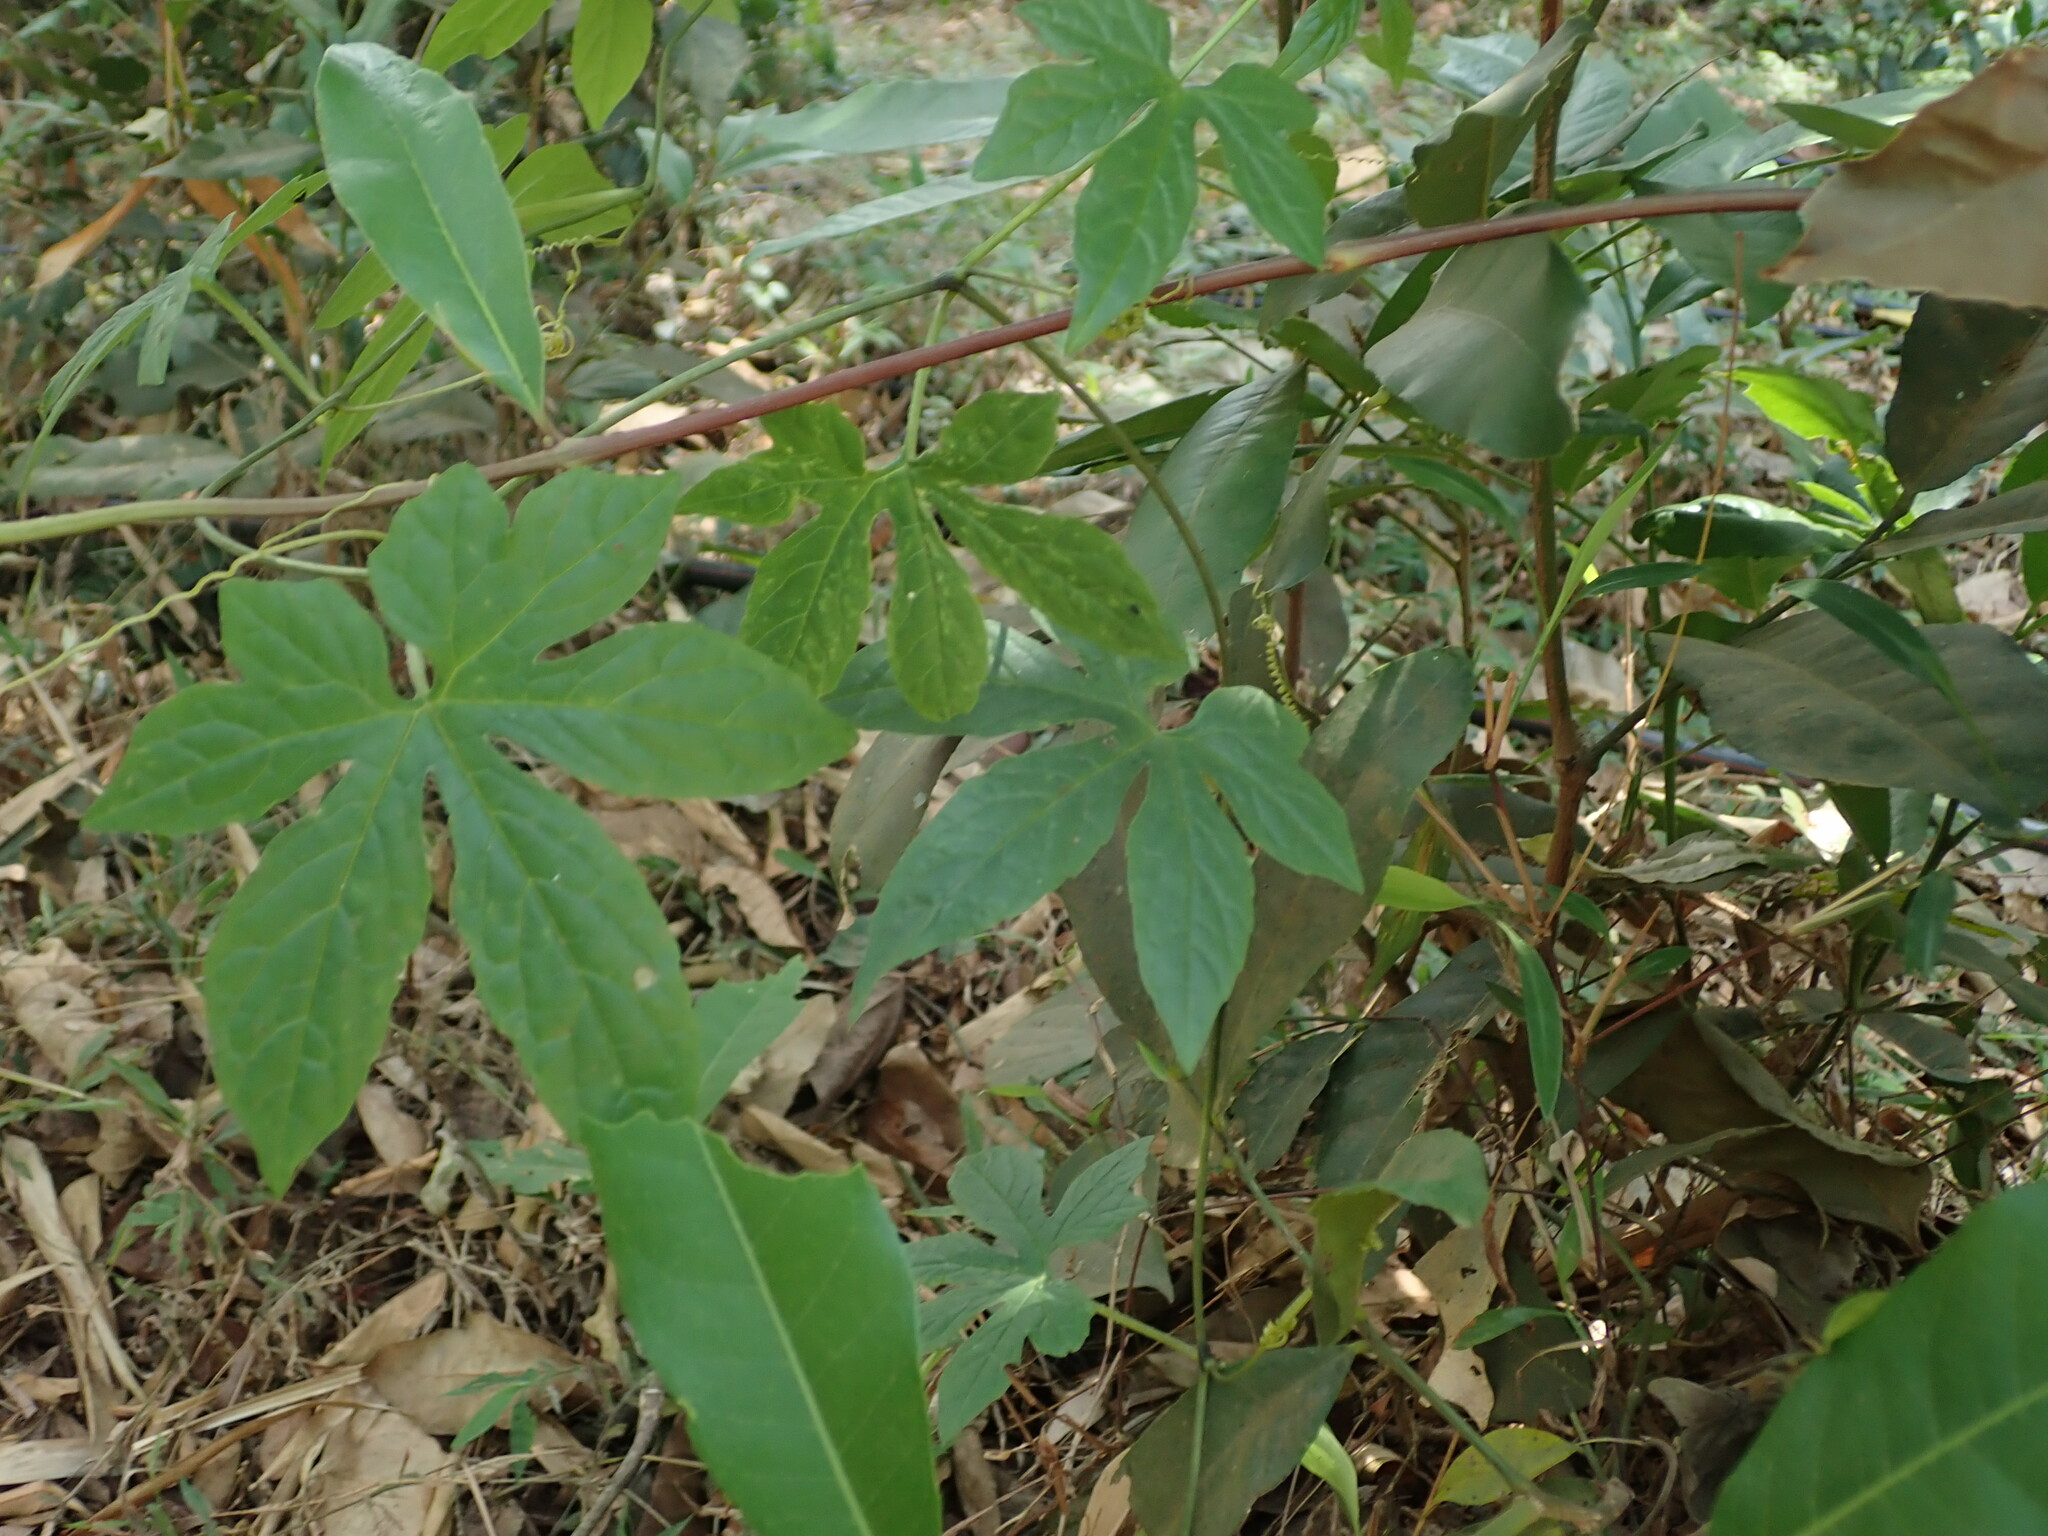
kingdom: Plantae
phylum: Tracheophyta
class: Magnoliopsida
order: Cucurbitales
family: Cucurbitaceae
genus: Diplocyclos
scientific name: Diplocyclos palmatus
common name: Striped-cucumber
